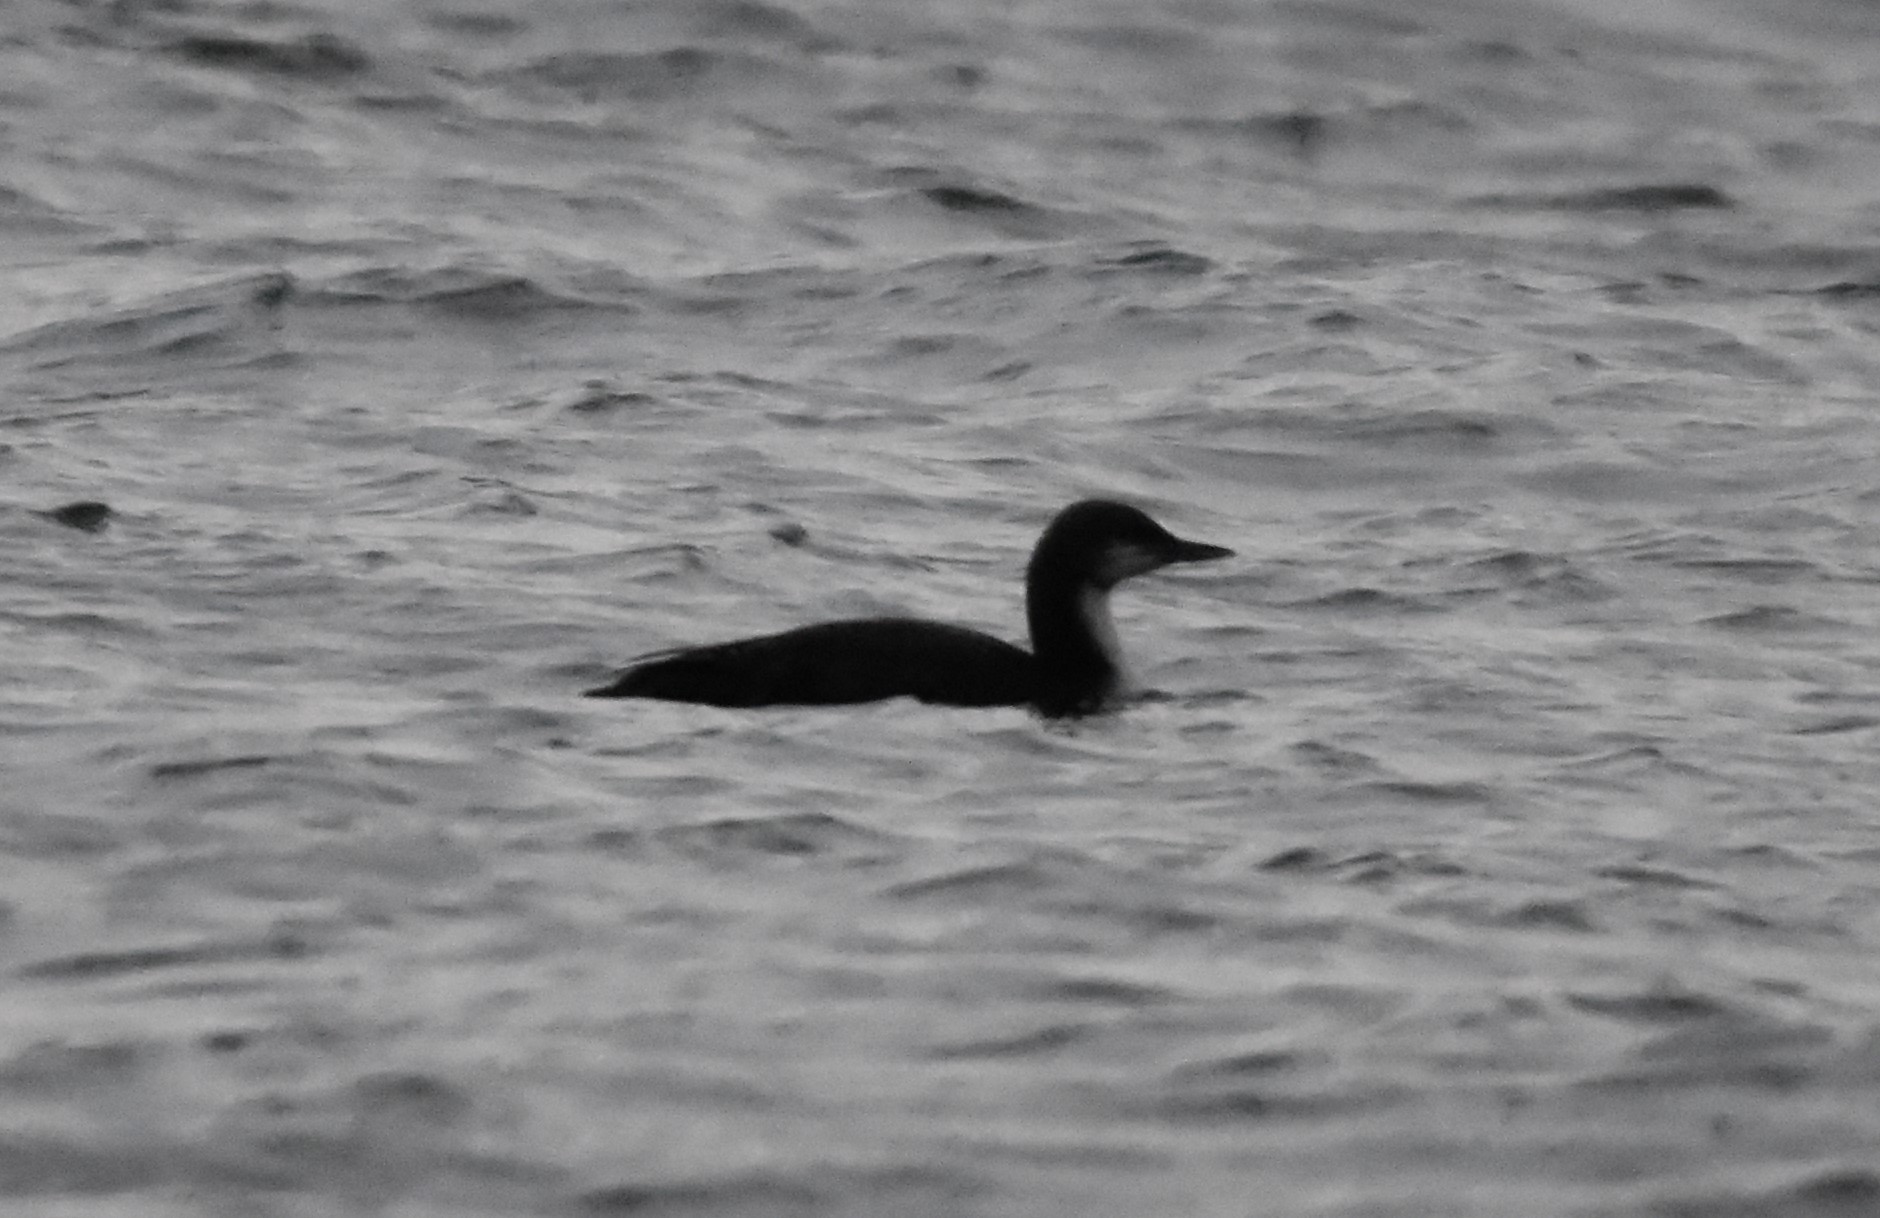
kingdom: Animalia
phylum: Chordata
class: Aves
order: Gaviiformes
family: Gaviidae
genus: Gavia
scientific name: Gavia pacifica
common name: Pacific loon
